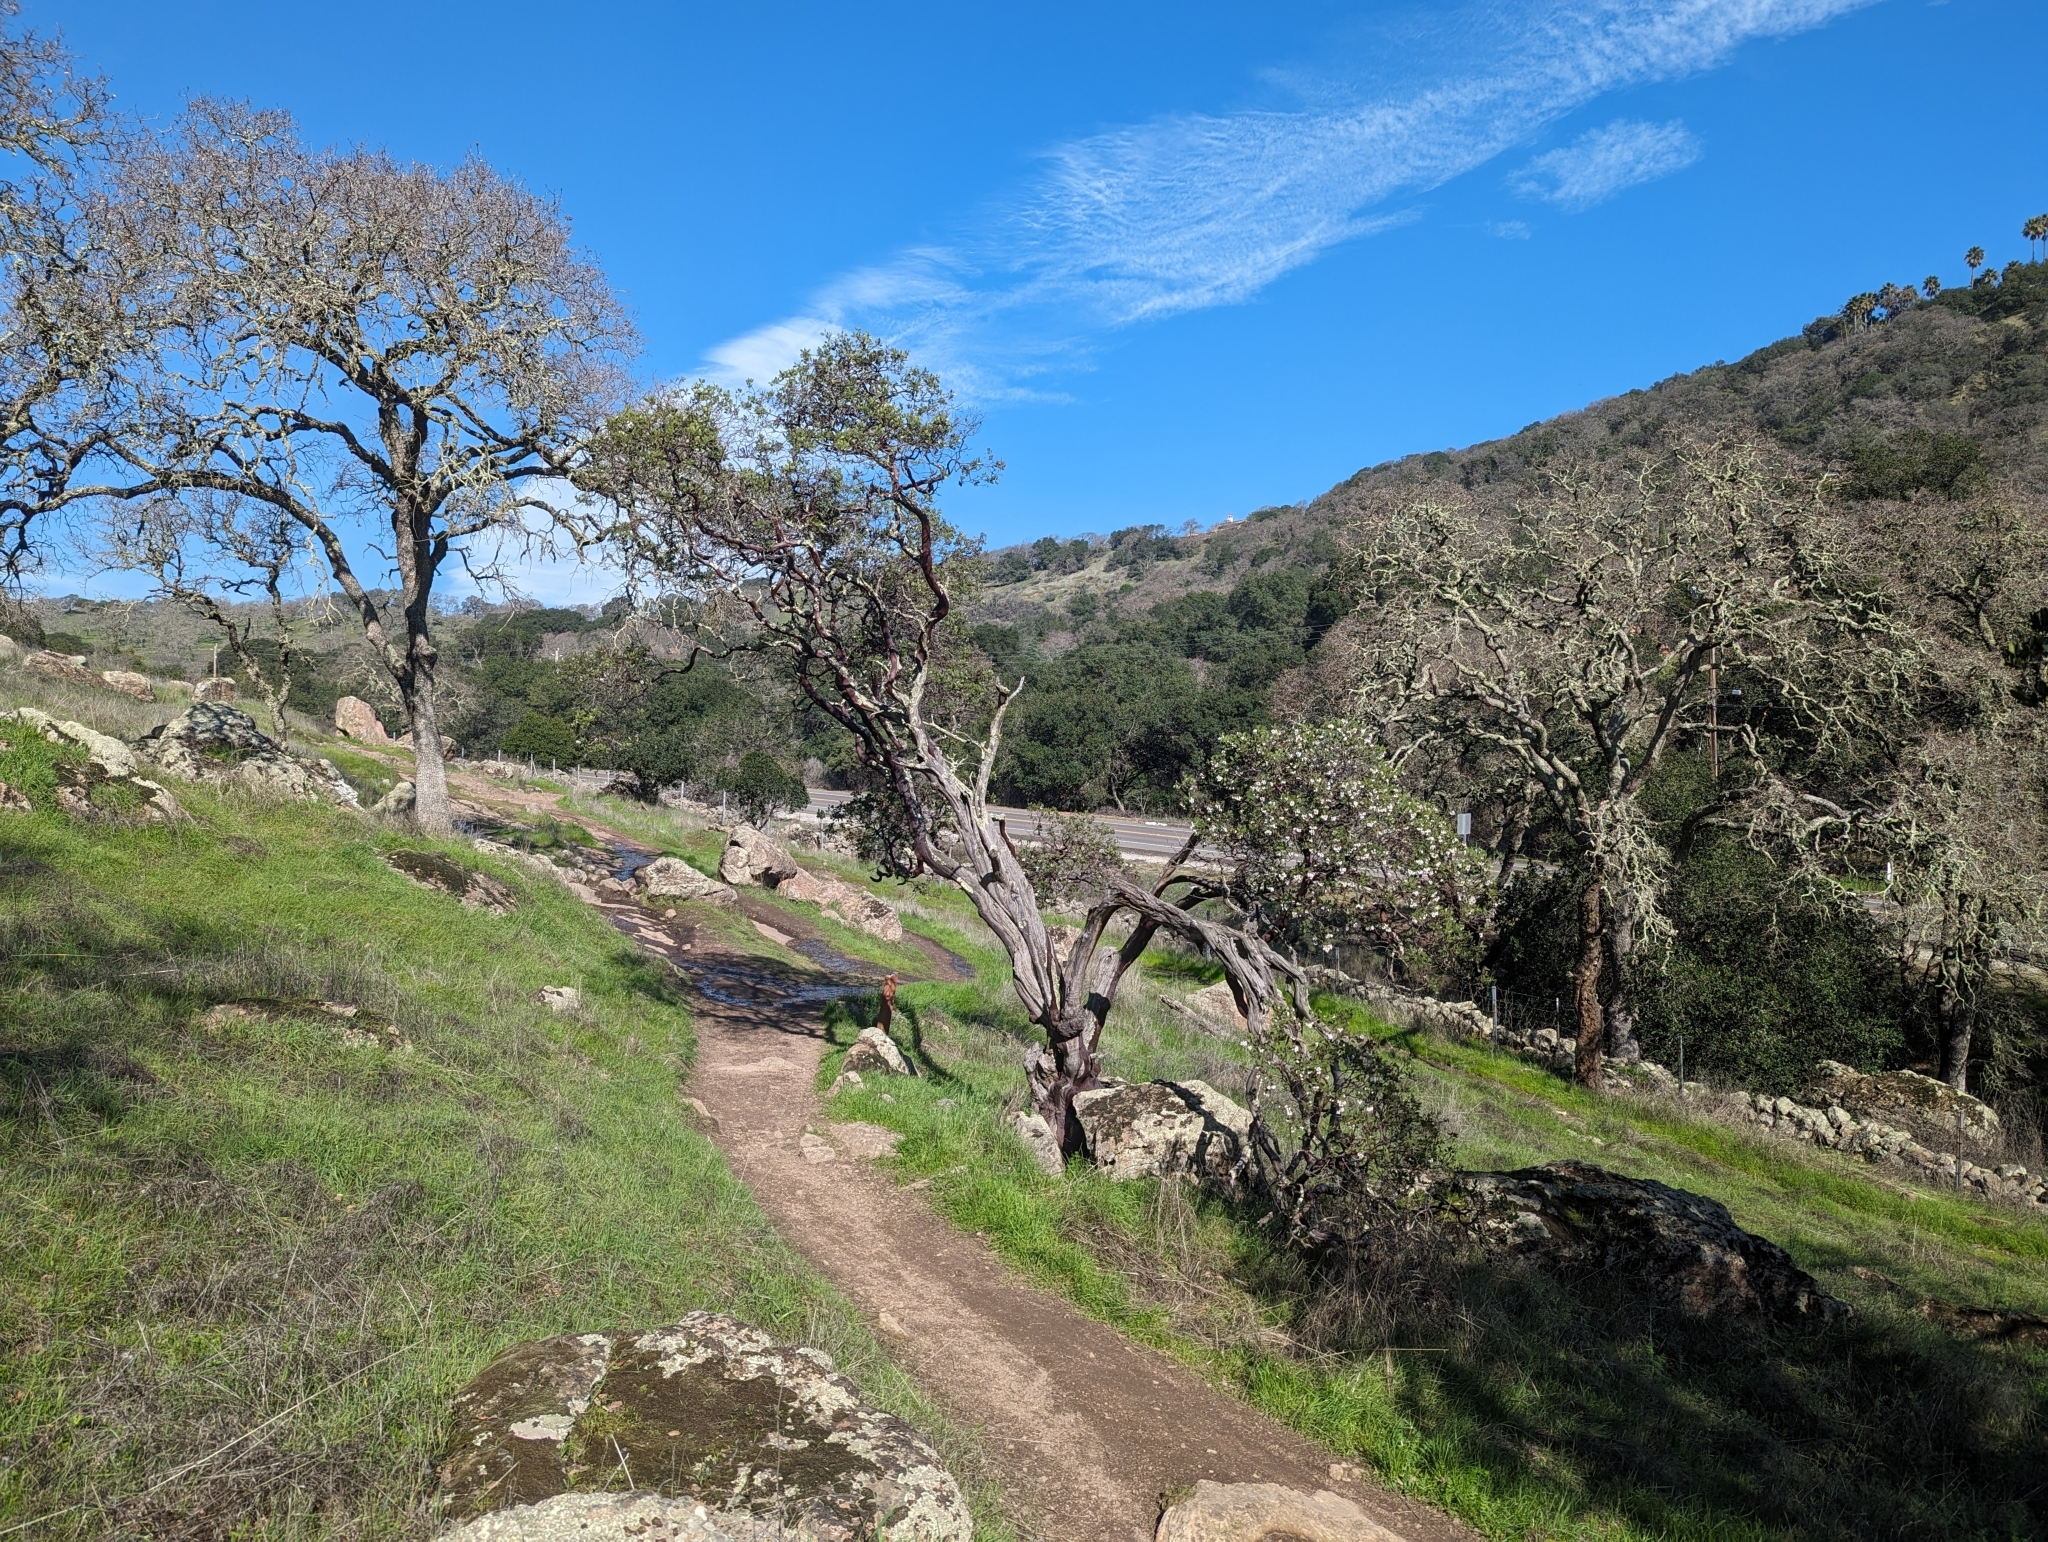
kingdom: Plantae
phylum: Tracheophyta
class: Magnoliopsida
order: Ericales
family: Ericaceae
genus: Arctostaphylos
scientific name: Arctostaphylos manzanita
